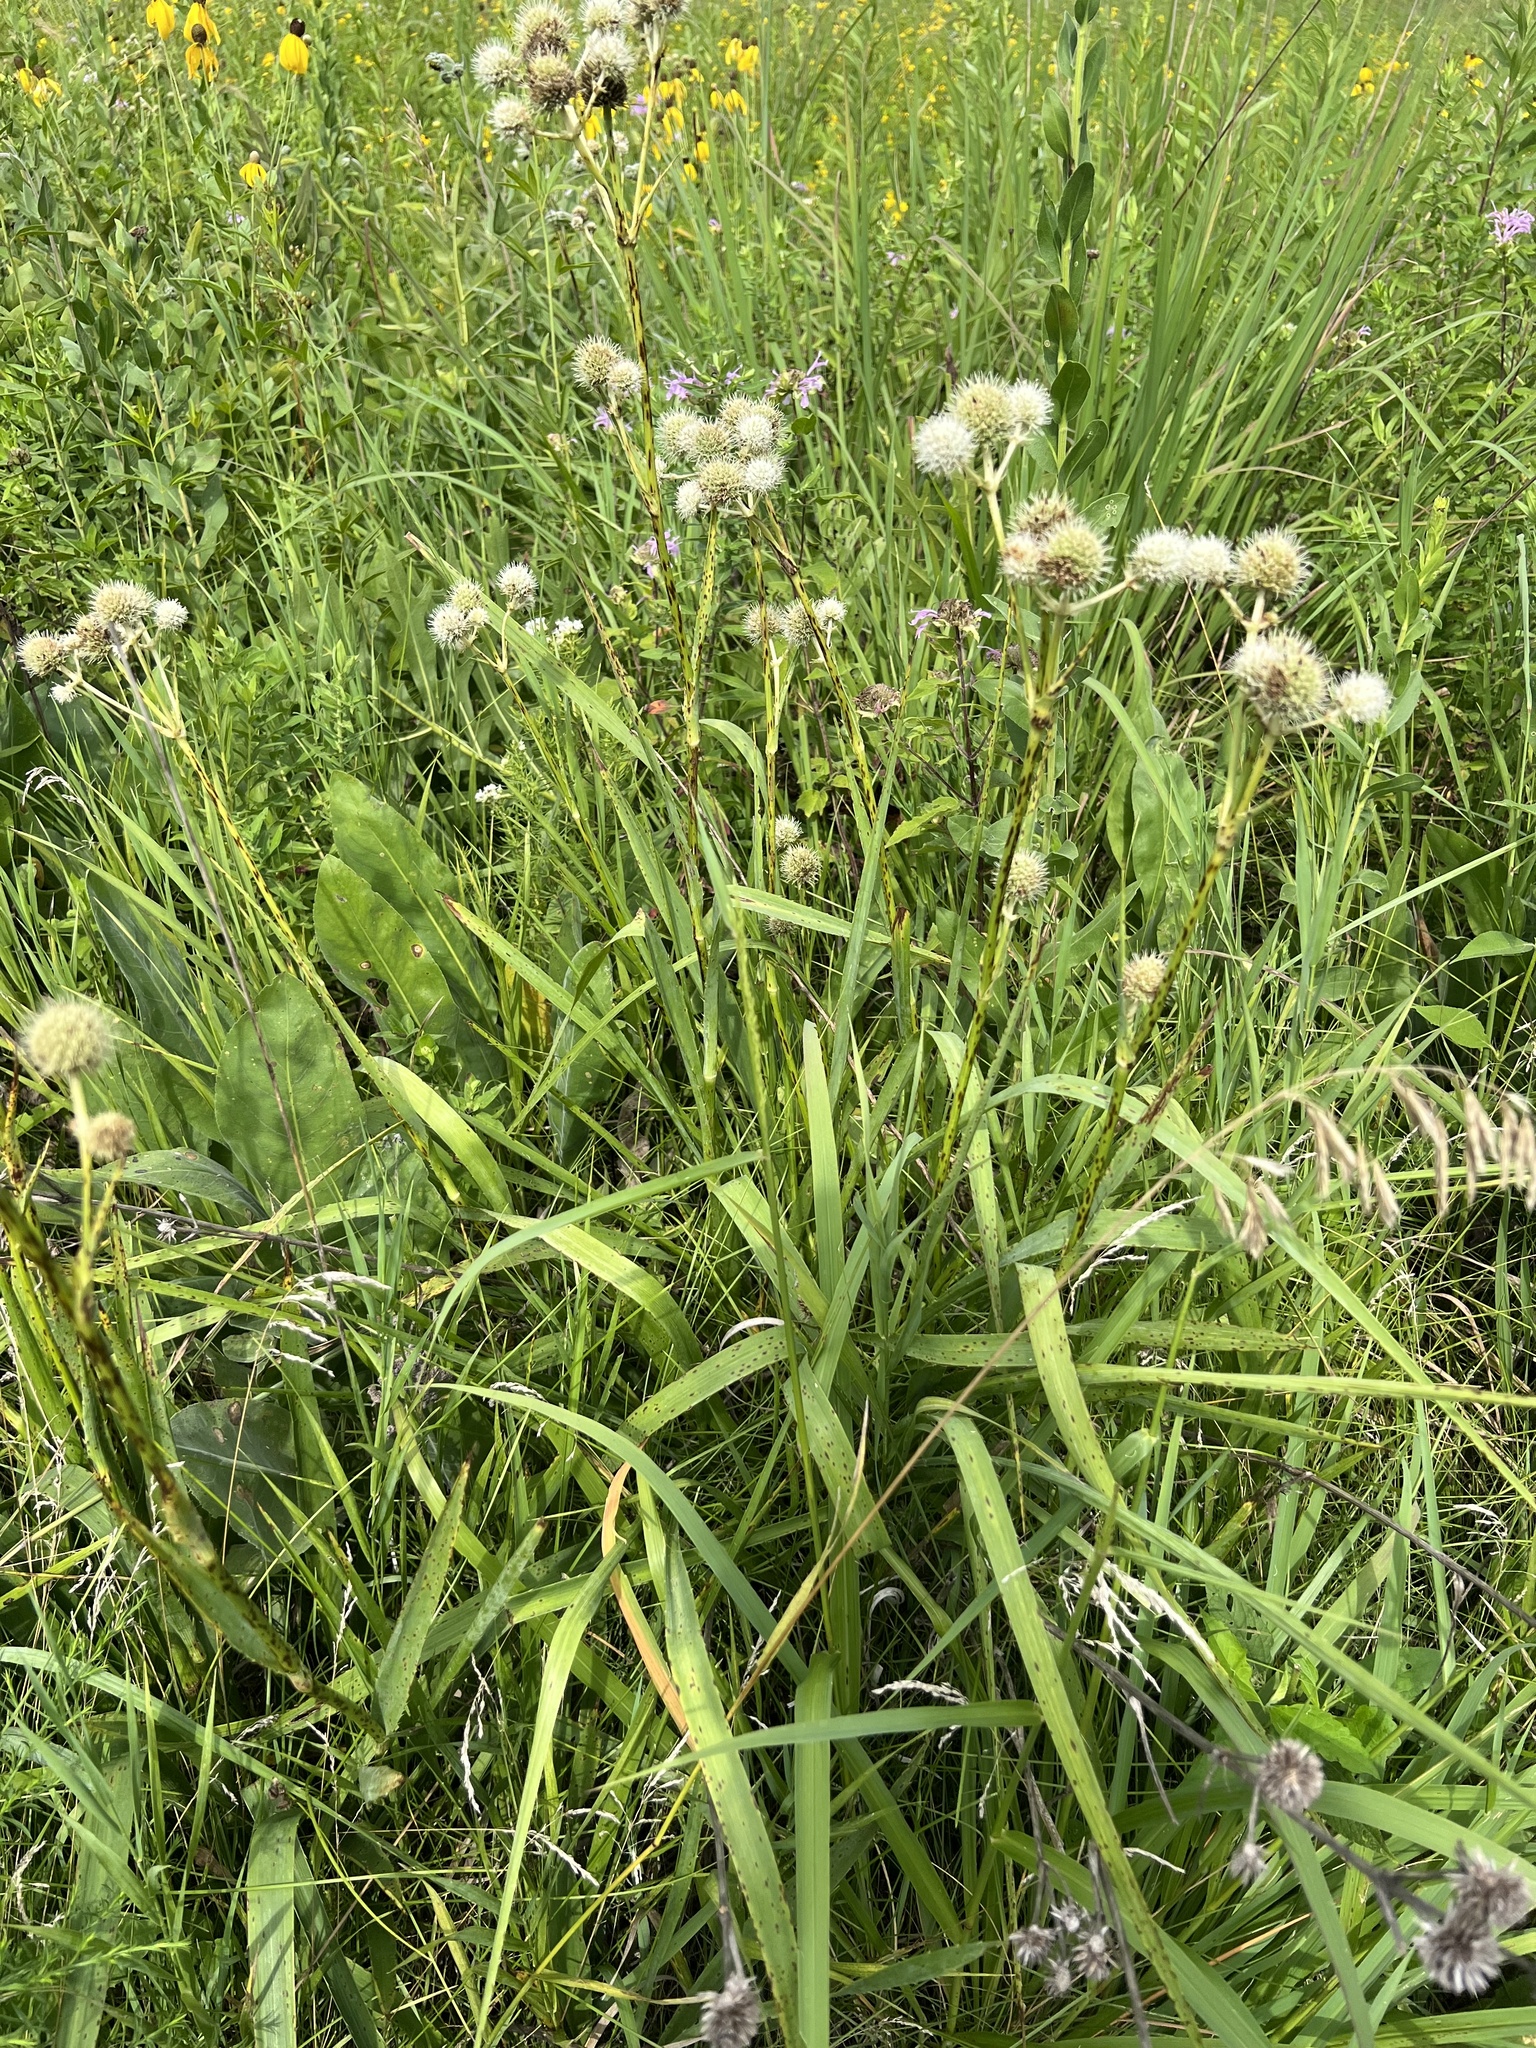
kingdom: Plantae
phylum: Tracheophyta
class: Magnoliopsida
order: Apiales
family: Apiaceae
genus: Eryngium
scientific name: Eryngium yuccifolium
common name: Button eryngo
